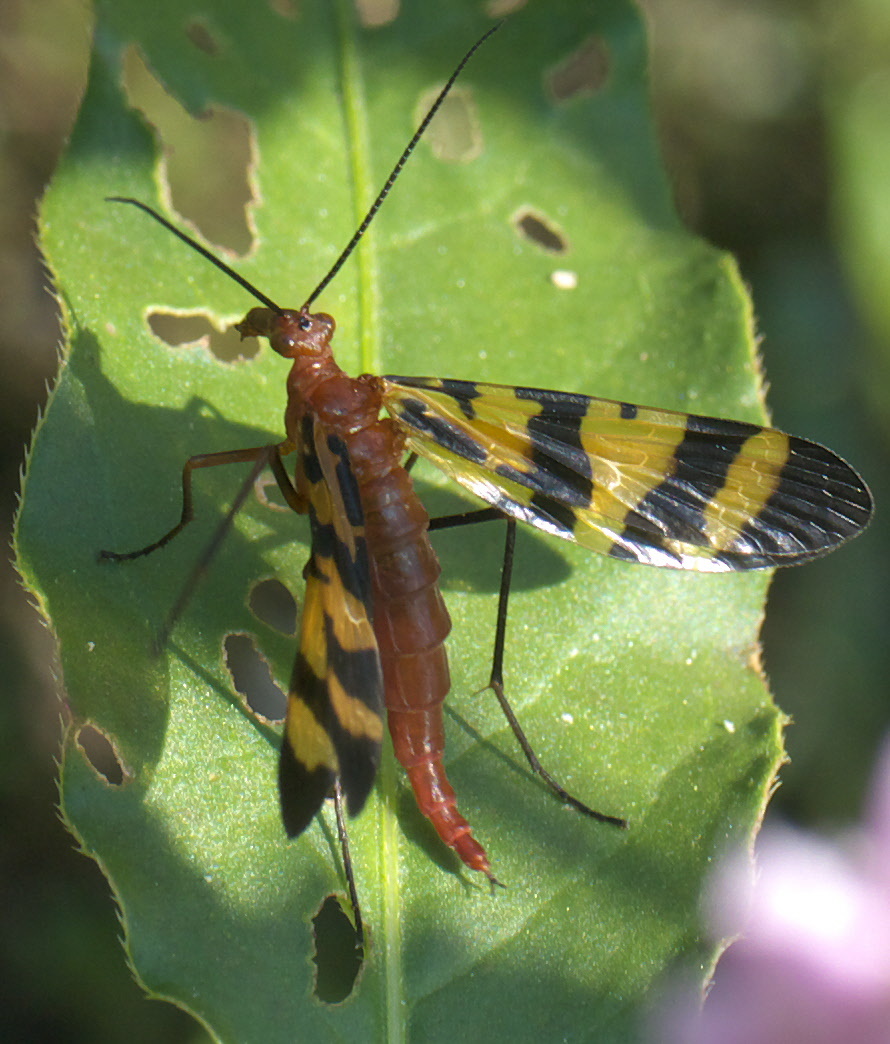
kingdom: Animalia
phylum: Arthropoda
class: Insecta
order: Mecoptera
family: Panorpidae
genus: Panorpa
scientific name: Panorpa nuptialis
